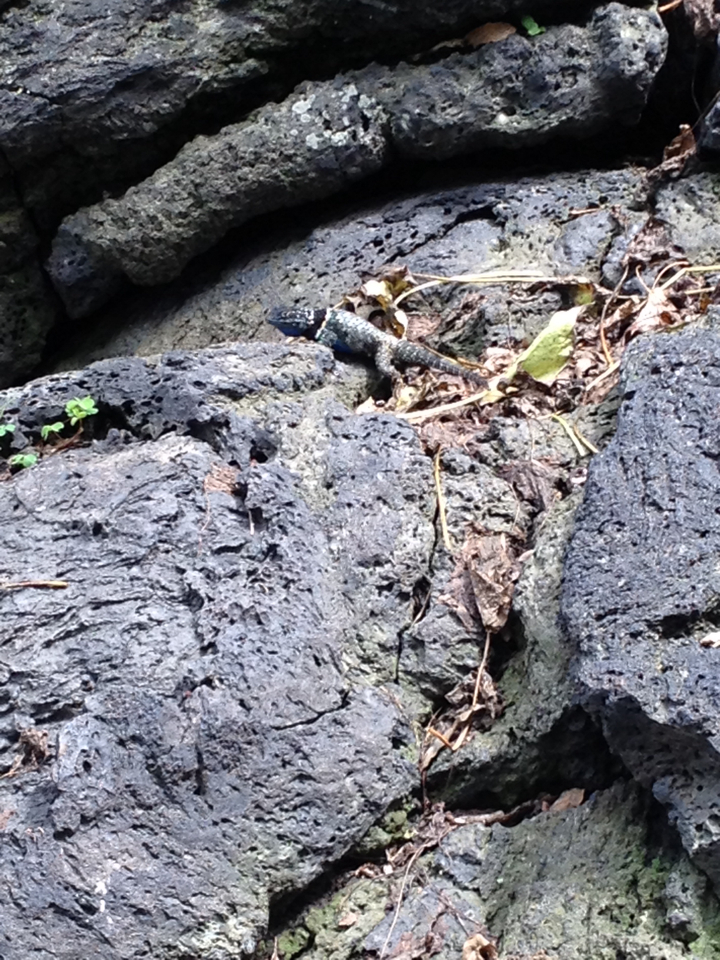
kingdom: Animalia
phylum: Chordata
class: Squamata
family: Phrynosomatidae
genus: Sceloporus
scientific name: Sceloporus torquatus
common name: Central plateau torquate lizard [melanogaster]
